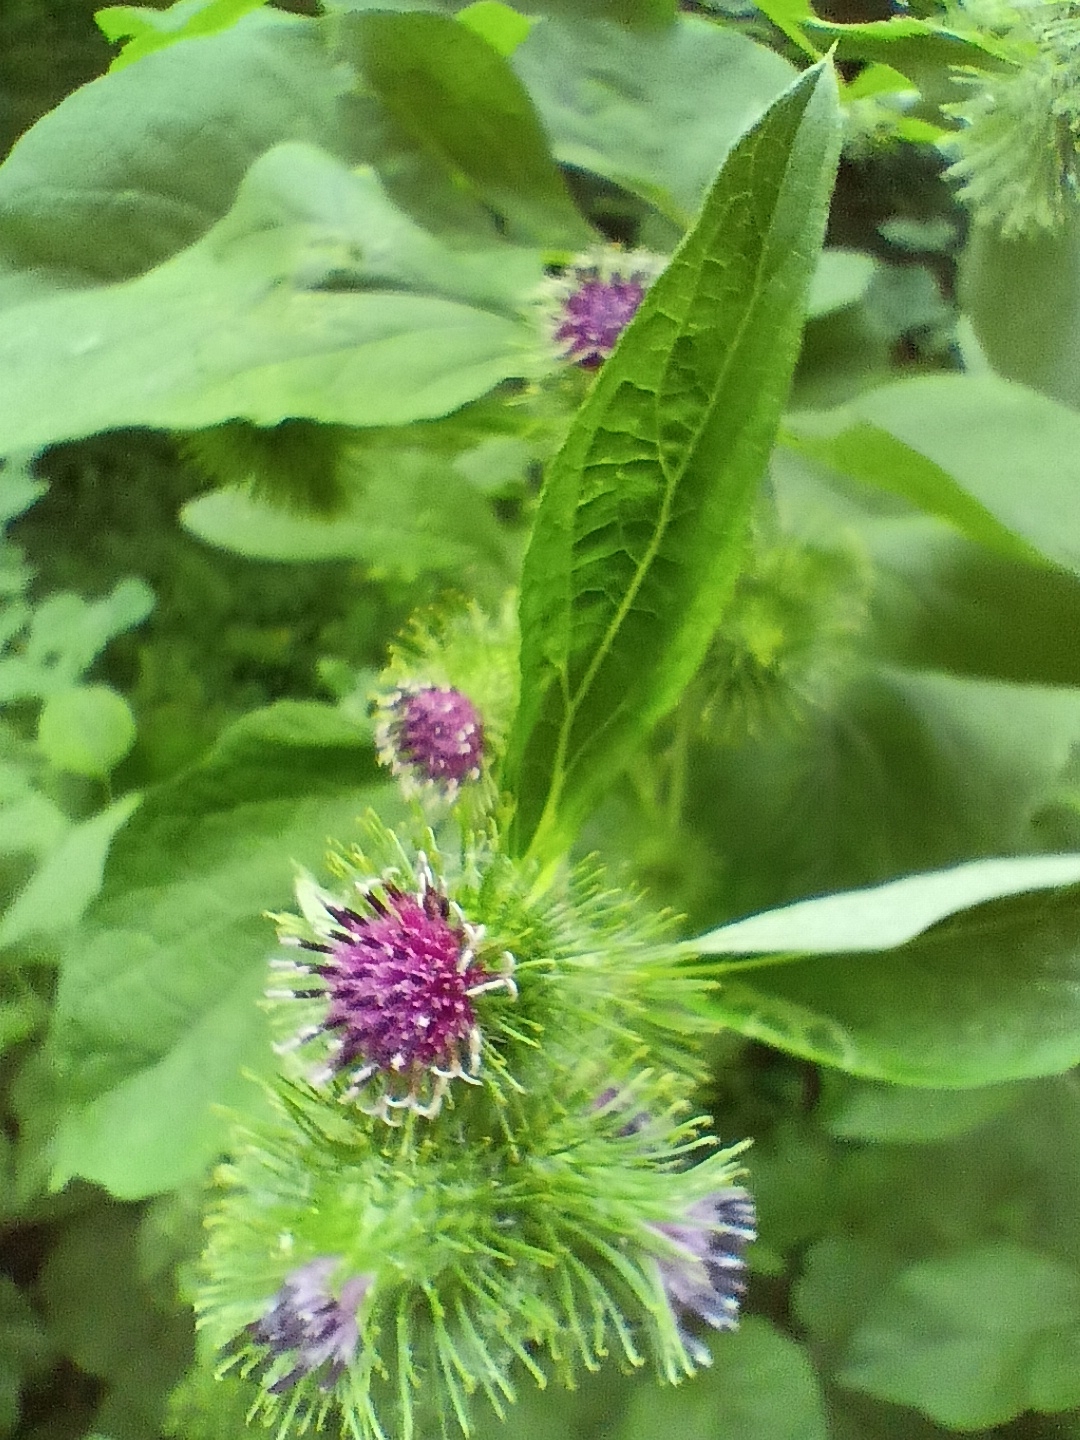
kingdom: Plantae
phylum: Tracheophyta
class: Magnoliopsida
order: Asterales
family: Asteraceae
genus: Arctium
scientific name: Arctium minus
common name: Lesser burdock
